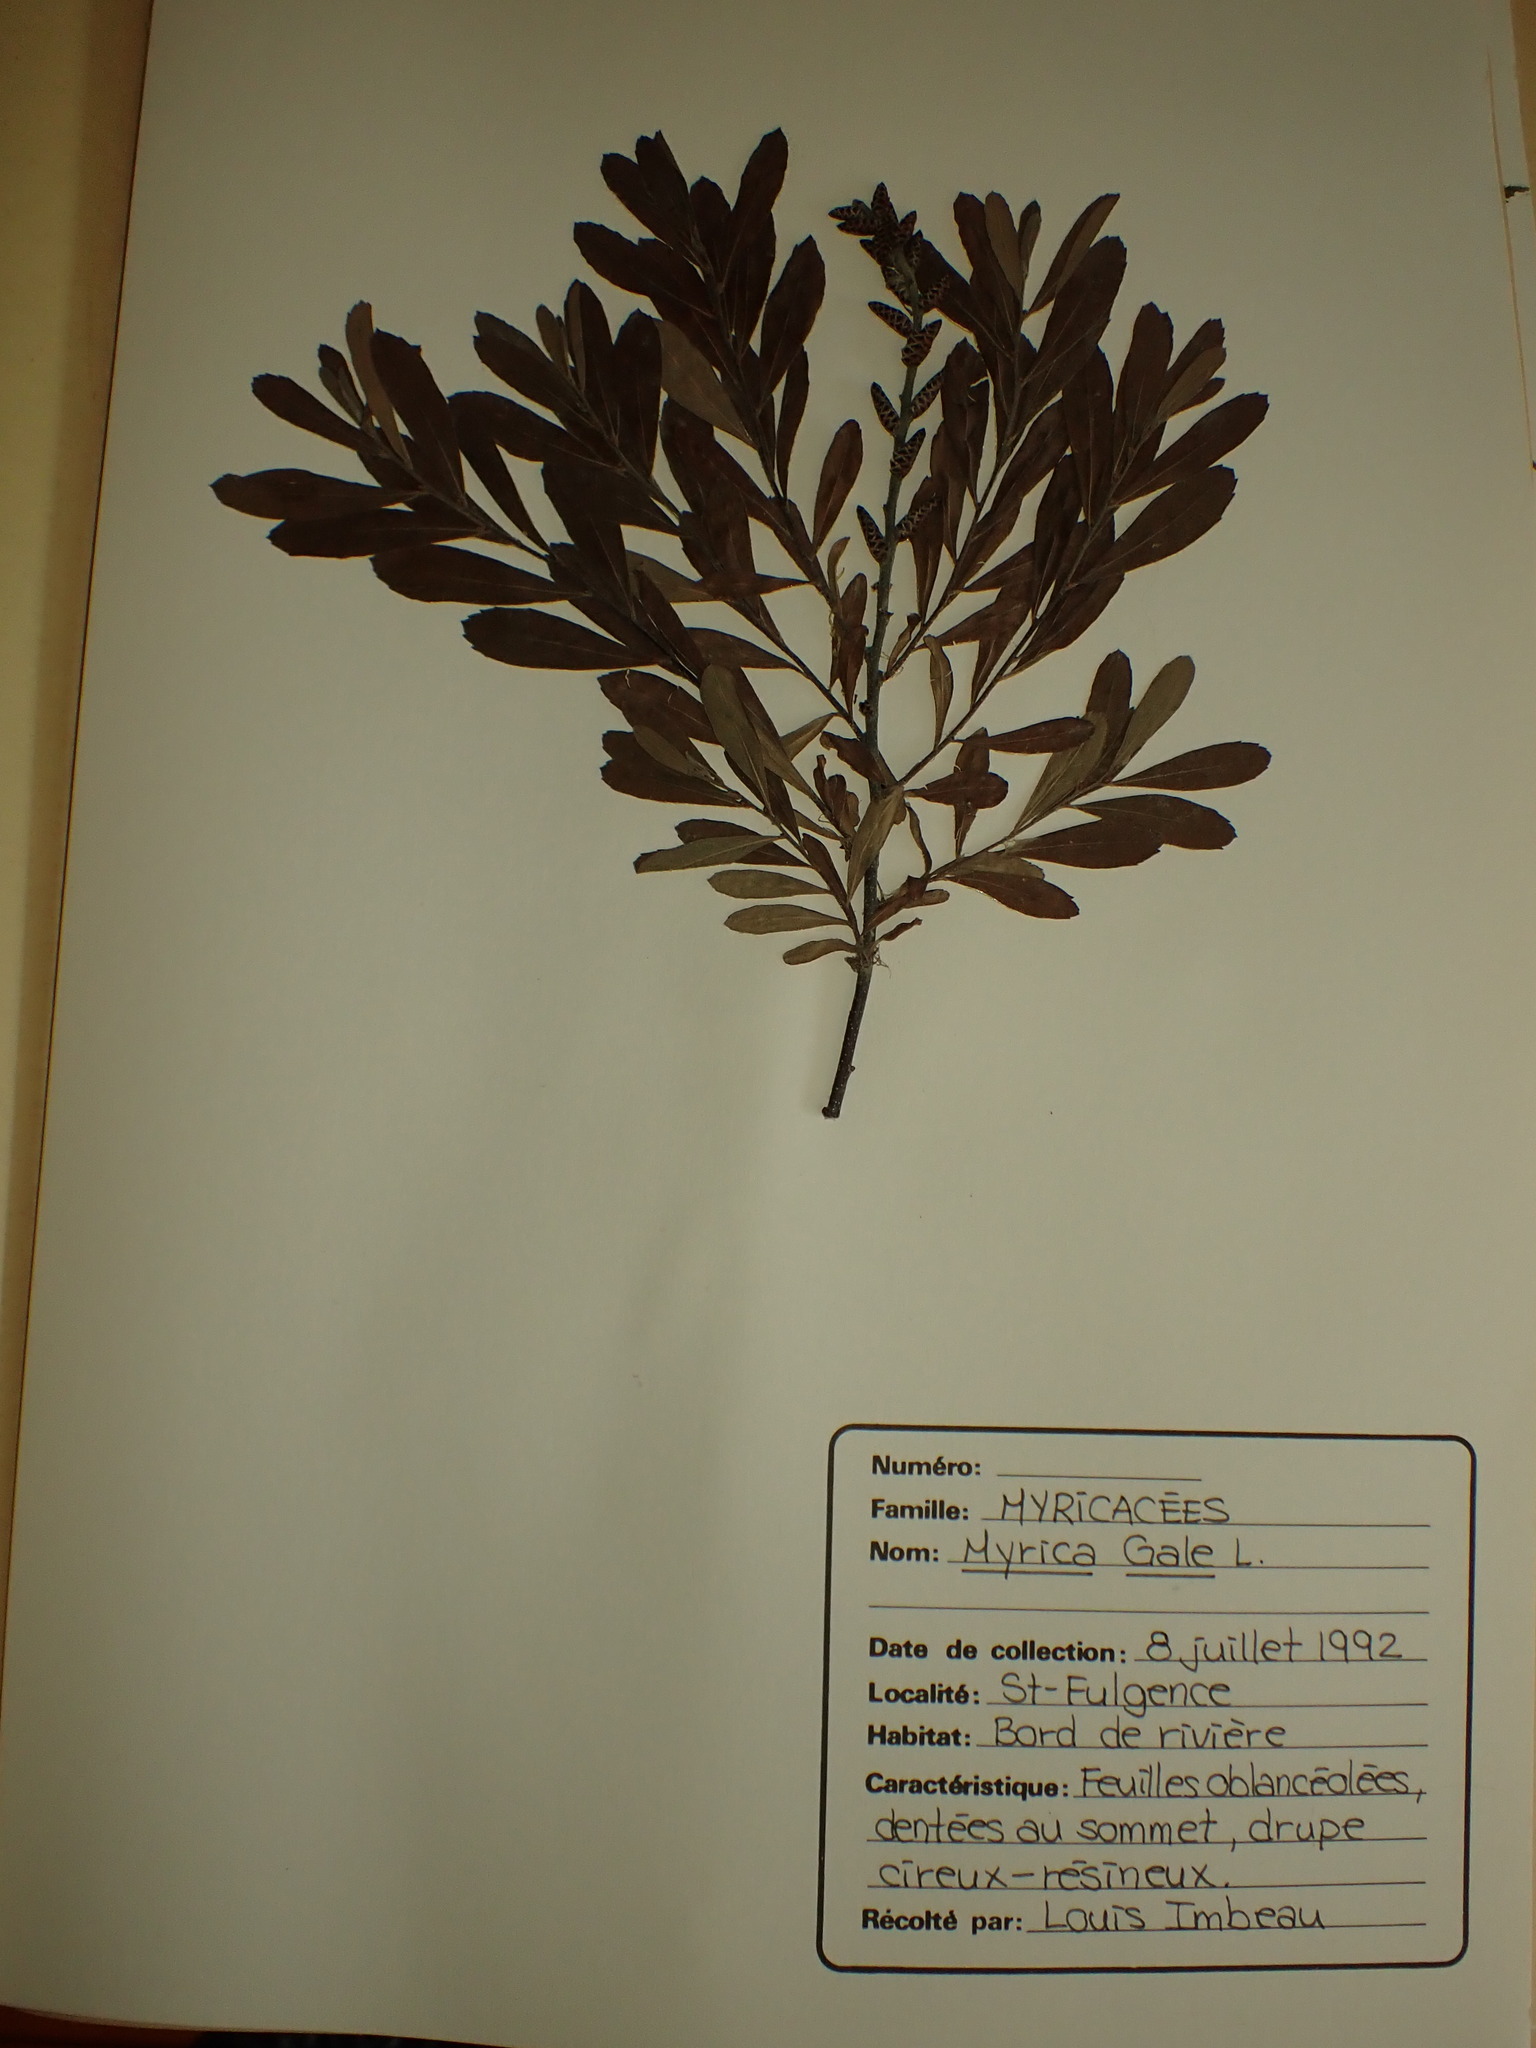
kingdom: Plantae
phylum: Tracheophyta
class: Magnoliopsida
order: Fagales
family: Myricaceae
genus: Myrica
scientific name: Myrica gale
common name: Sweet gale
